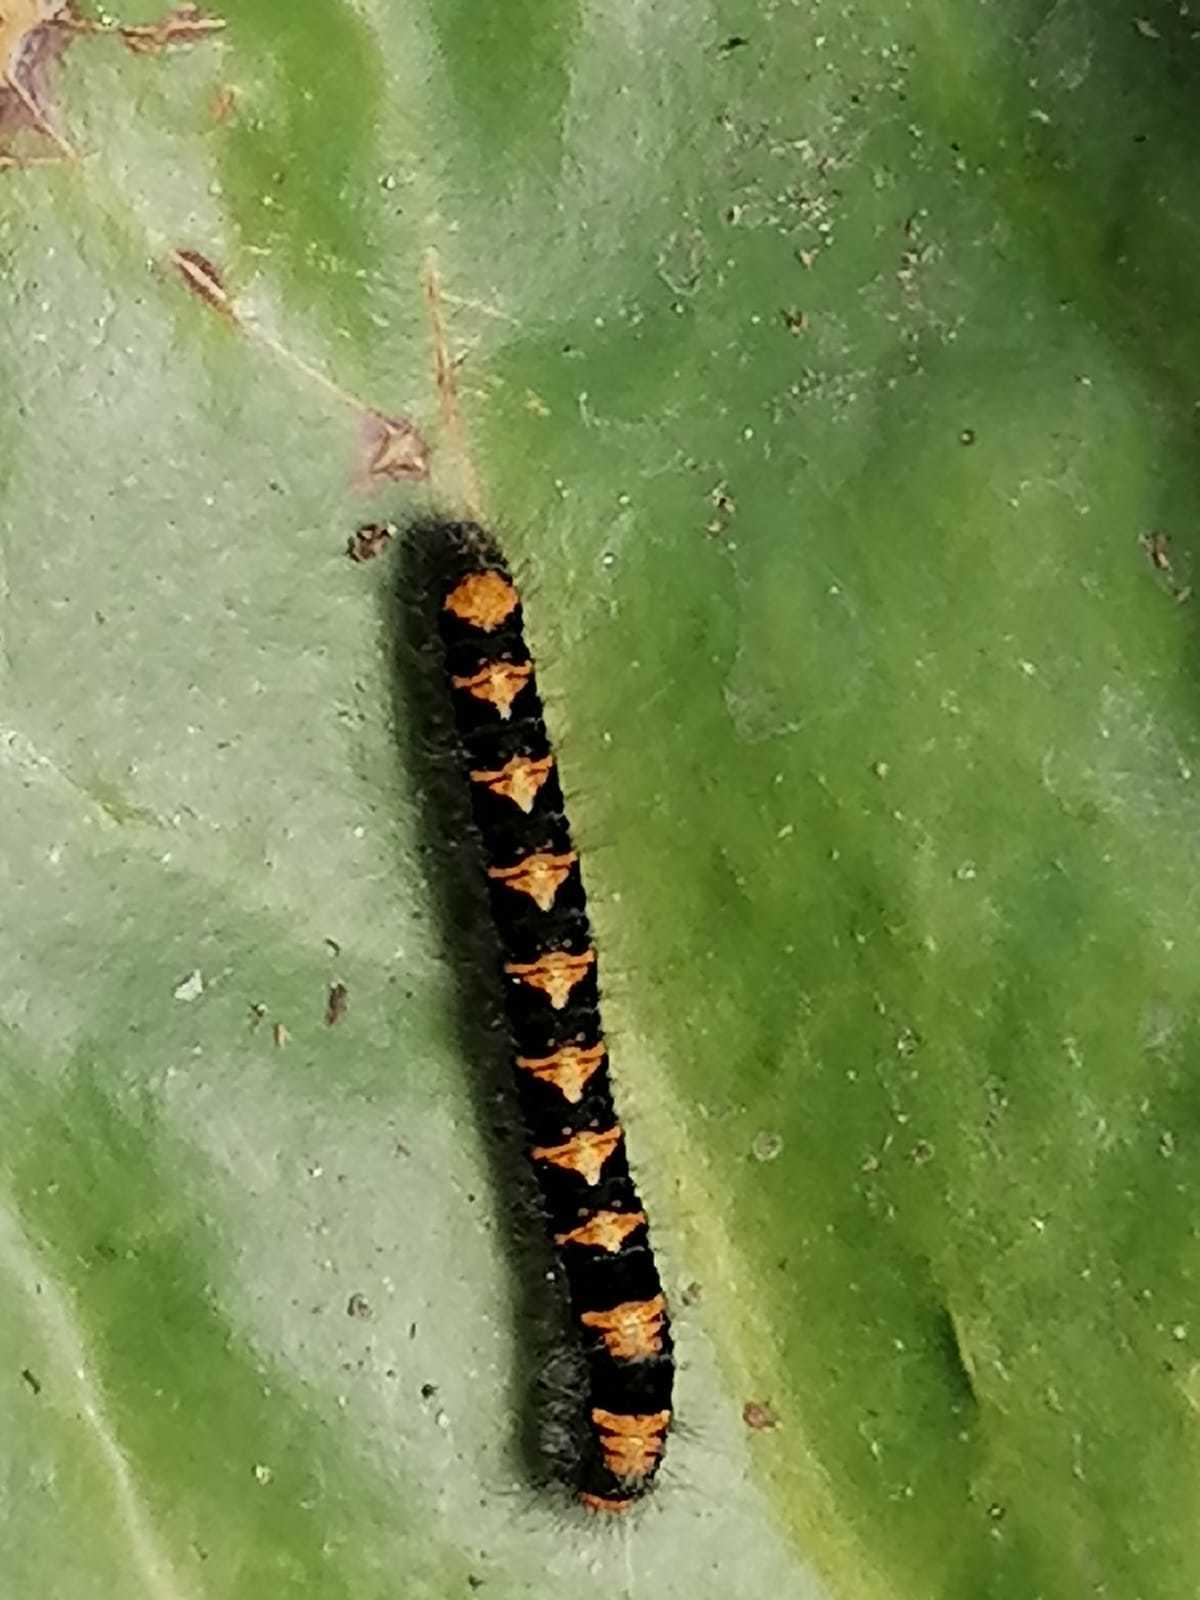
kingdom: Animalia
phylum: Arthropoda
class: Insecta
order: Lepidoptera
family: Lasiocampidae
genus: Lasiocampa
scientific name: Lasiocampa quercus
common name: Oak eggar
